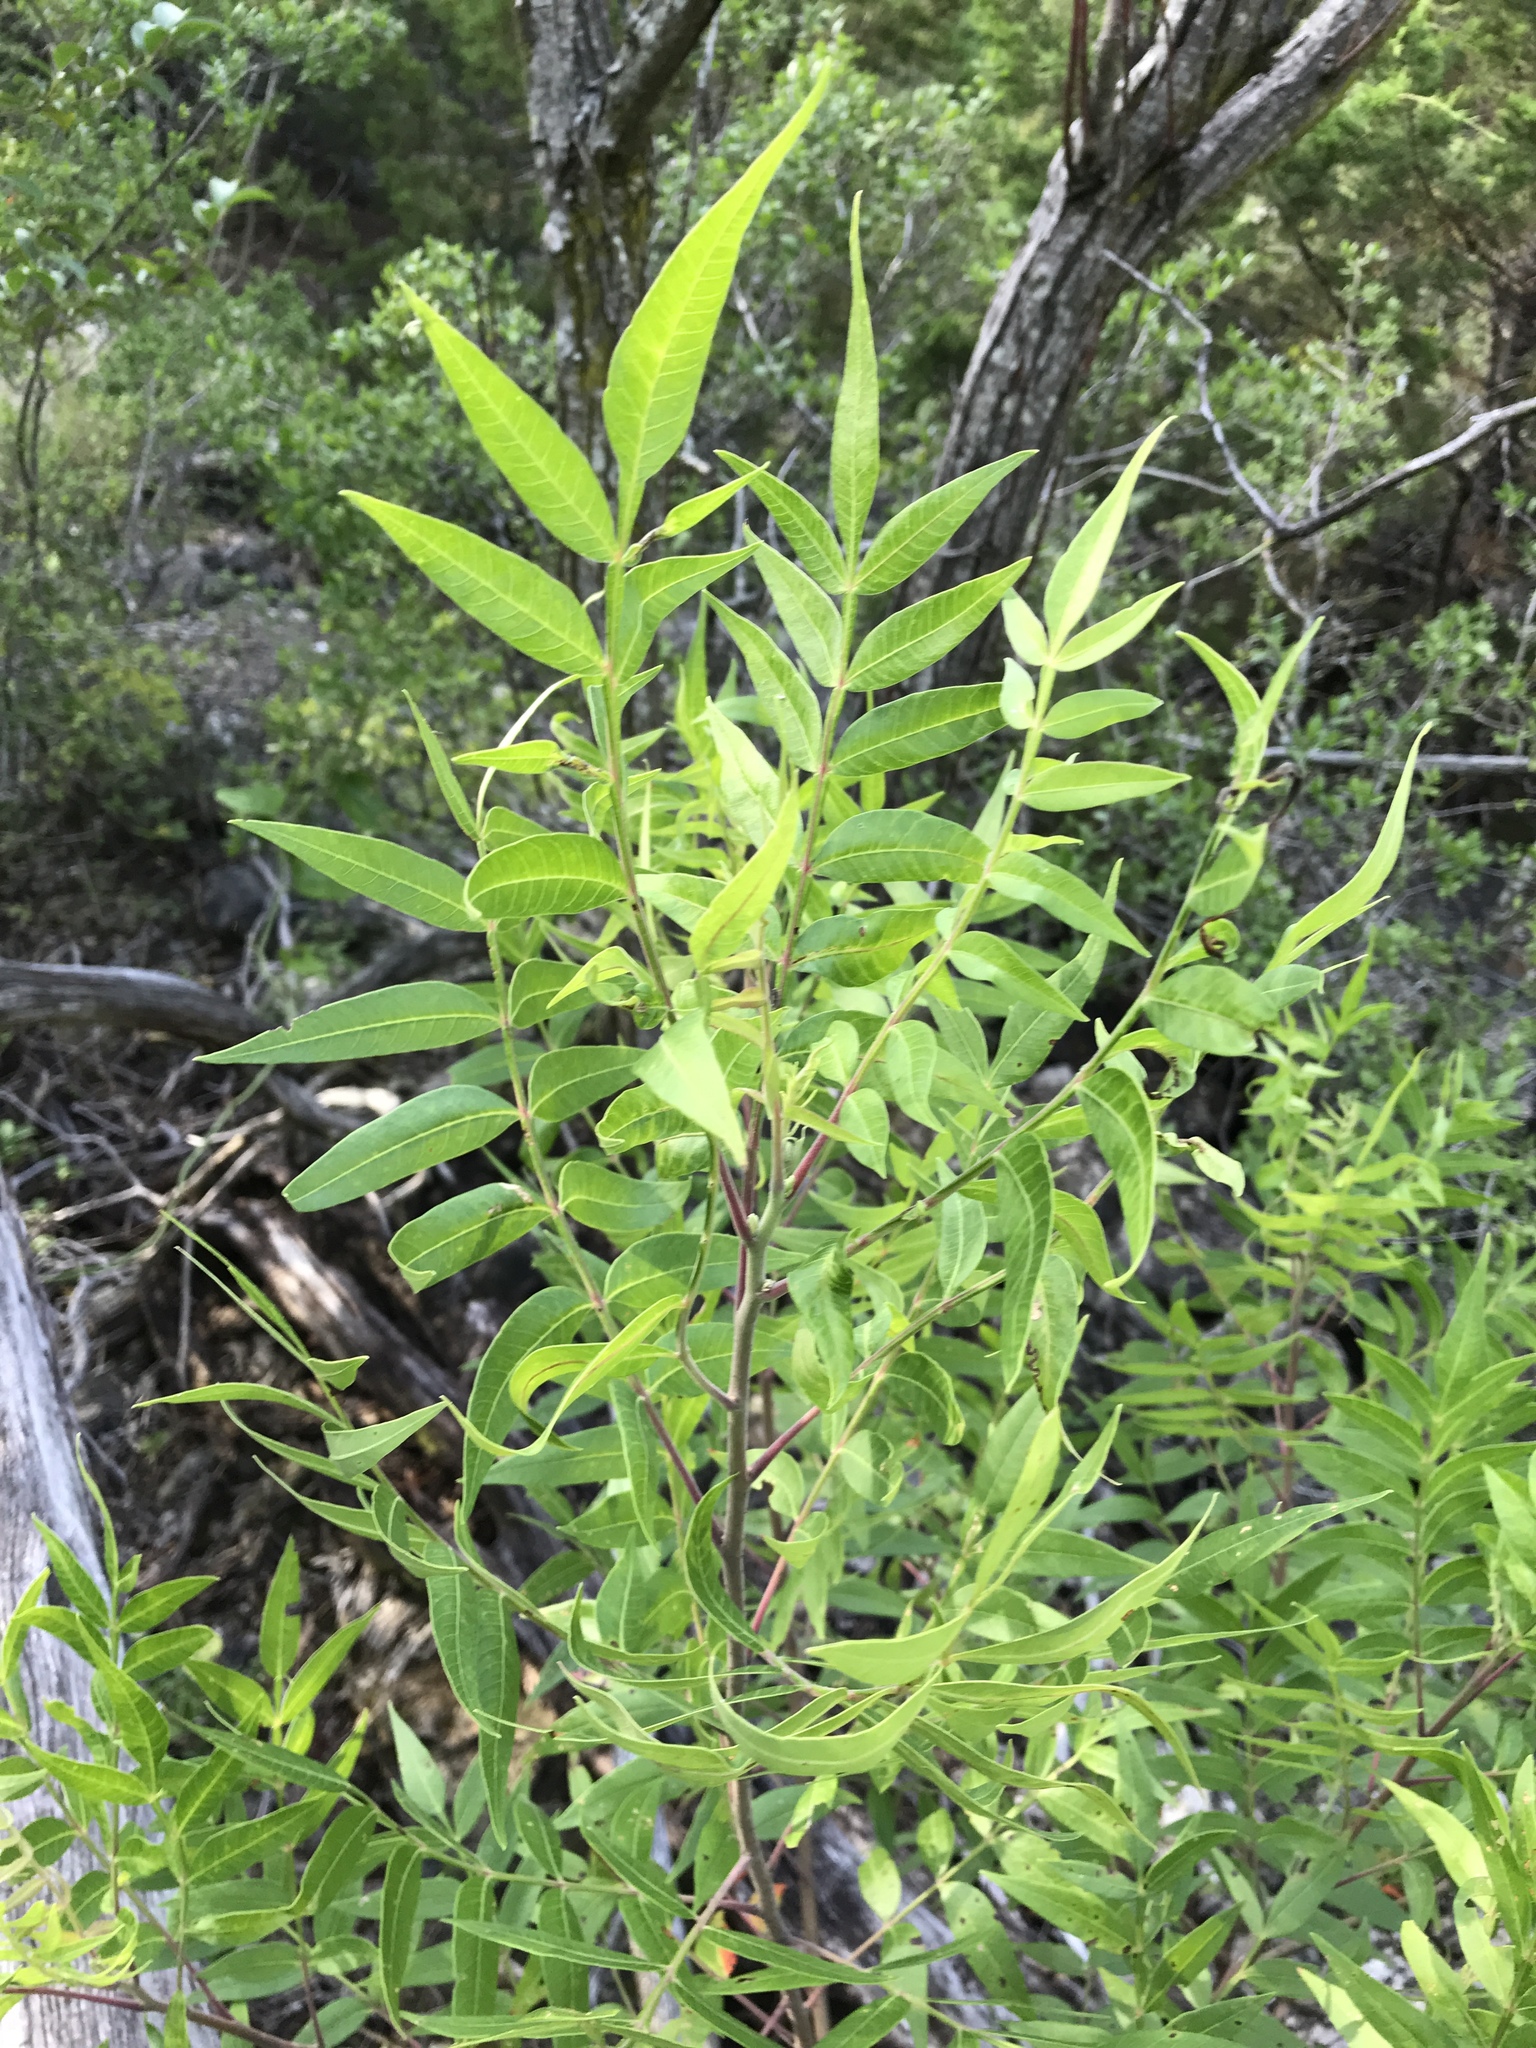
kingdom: Plantae
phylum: Tracheophyta
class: Magnoliopsida
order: Sapindales
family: Anacardiaceae
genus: Rhus
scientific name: Rhus lanceolata
